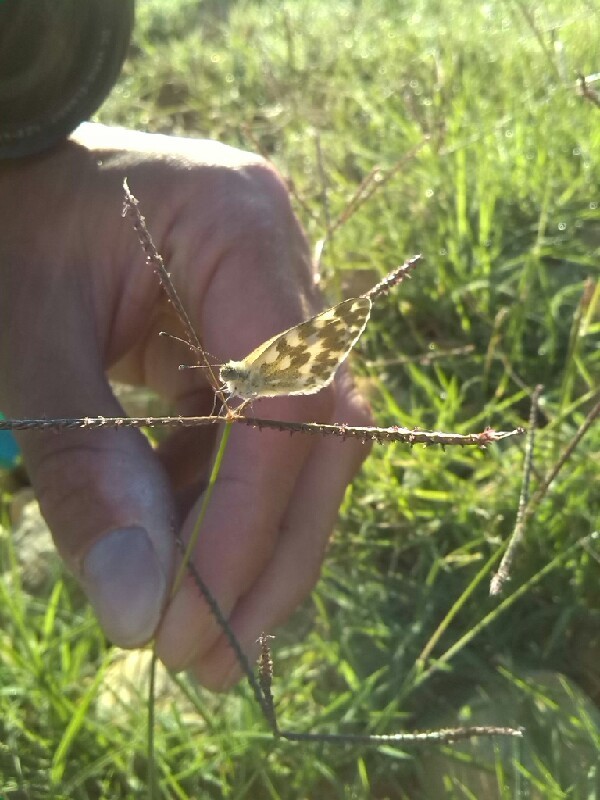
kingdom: Animalia
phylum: Arthropoda
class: Insecta
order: Lepidoptera
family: Pieridae
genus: Pontia
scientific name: Pontia daplidice
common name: Bath white
